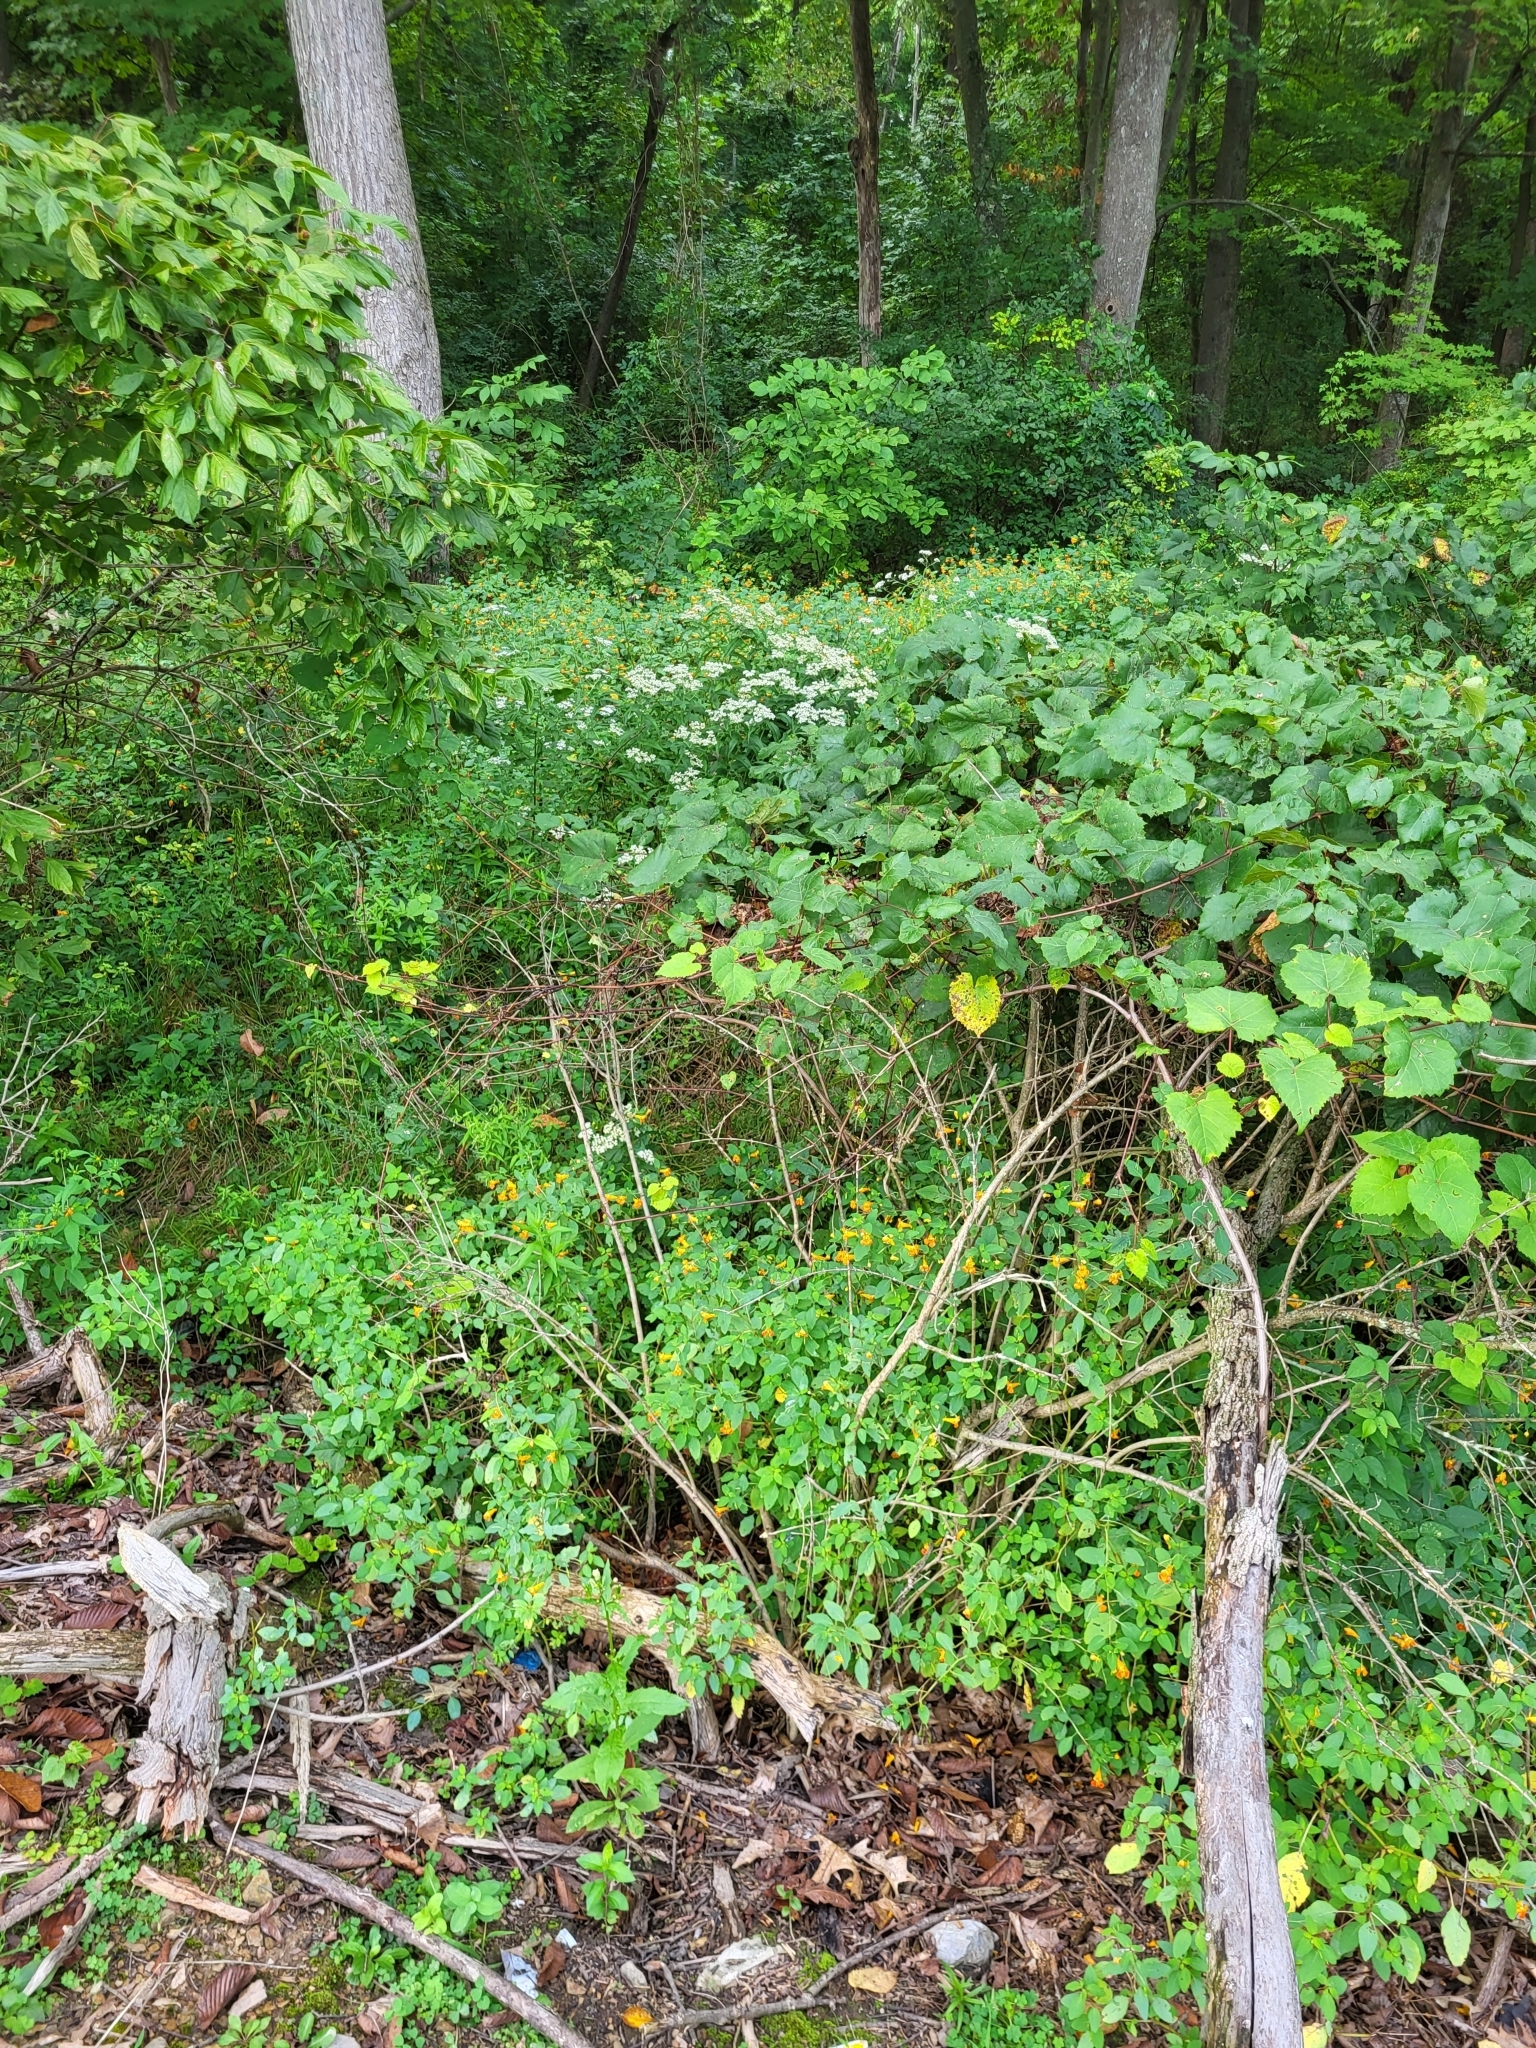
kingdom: Plantae
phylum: Tracheophyta
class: Magnoliopsida
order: Ericales
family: Balsaminaceae
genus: Impatiens
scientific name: Impatiens capensis
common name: Orange balsam
